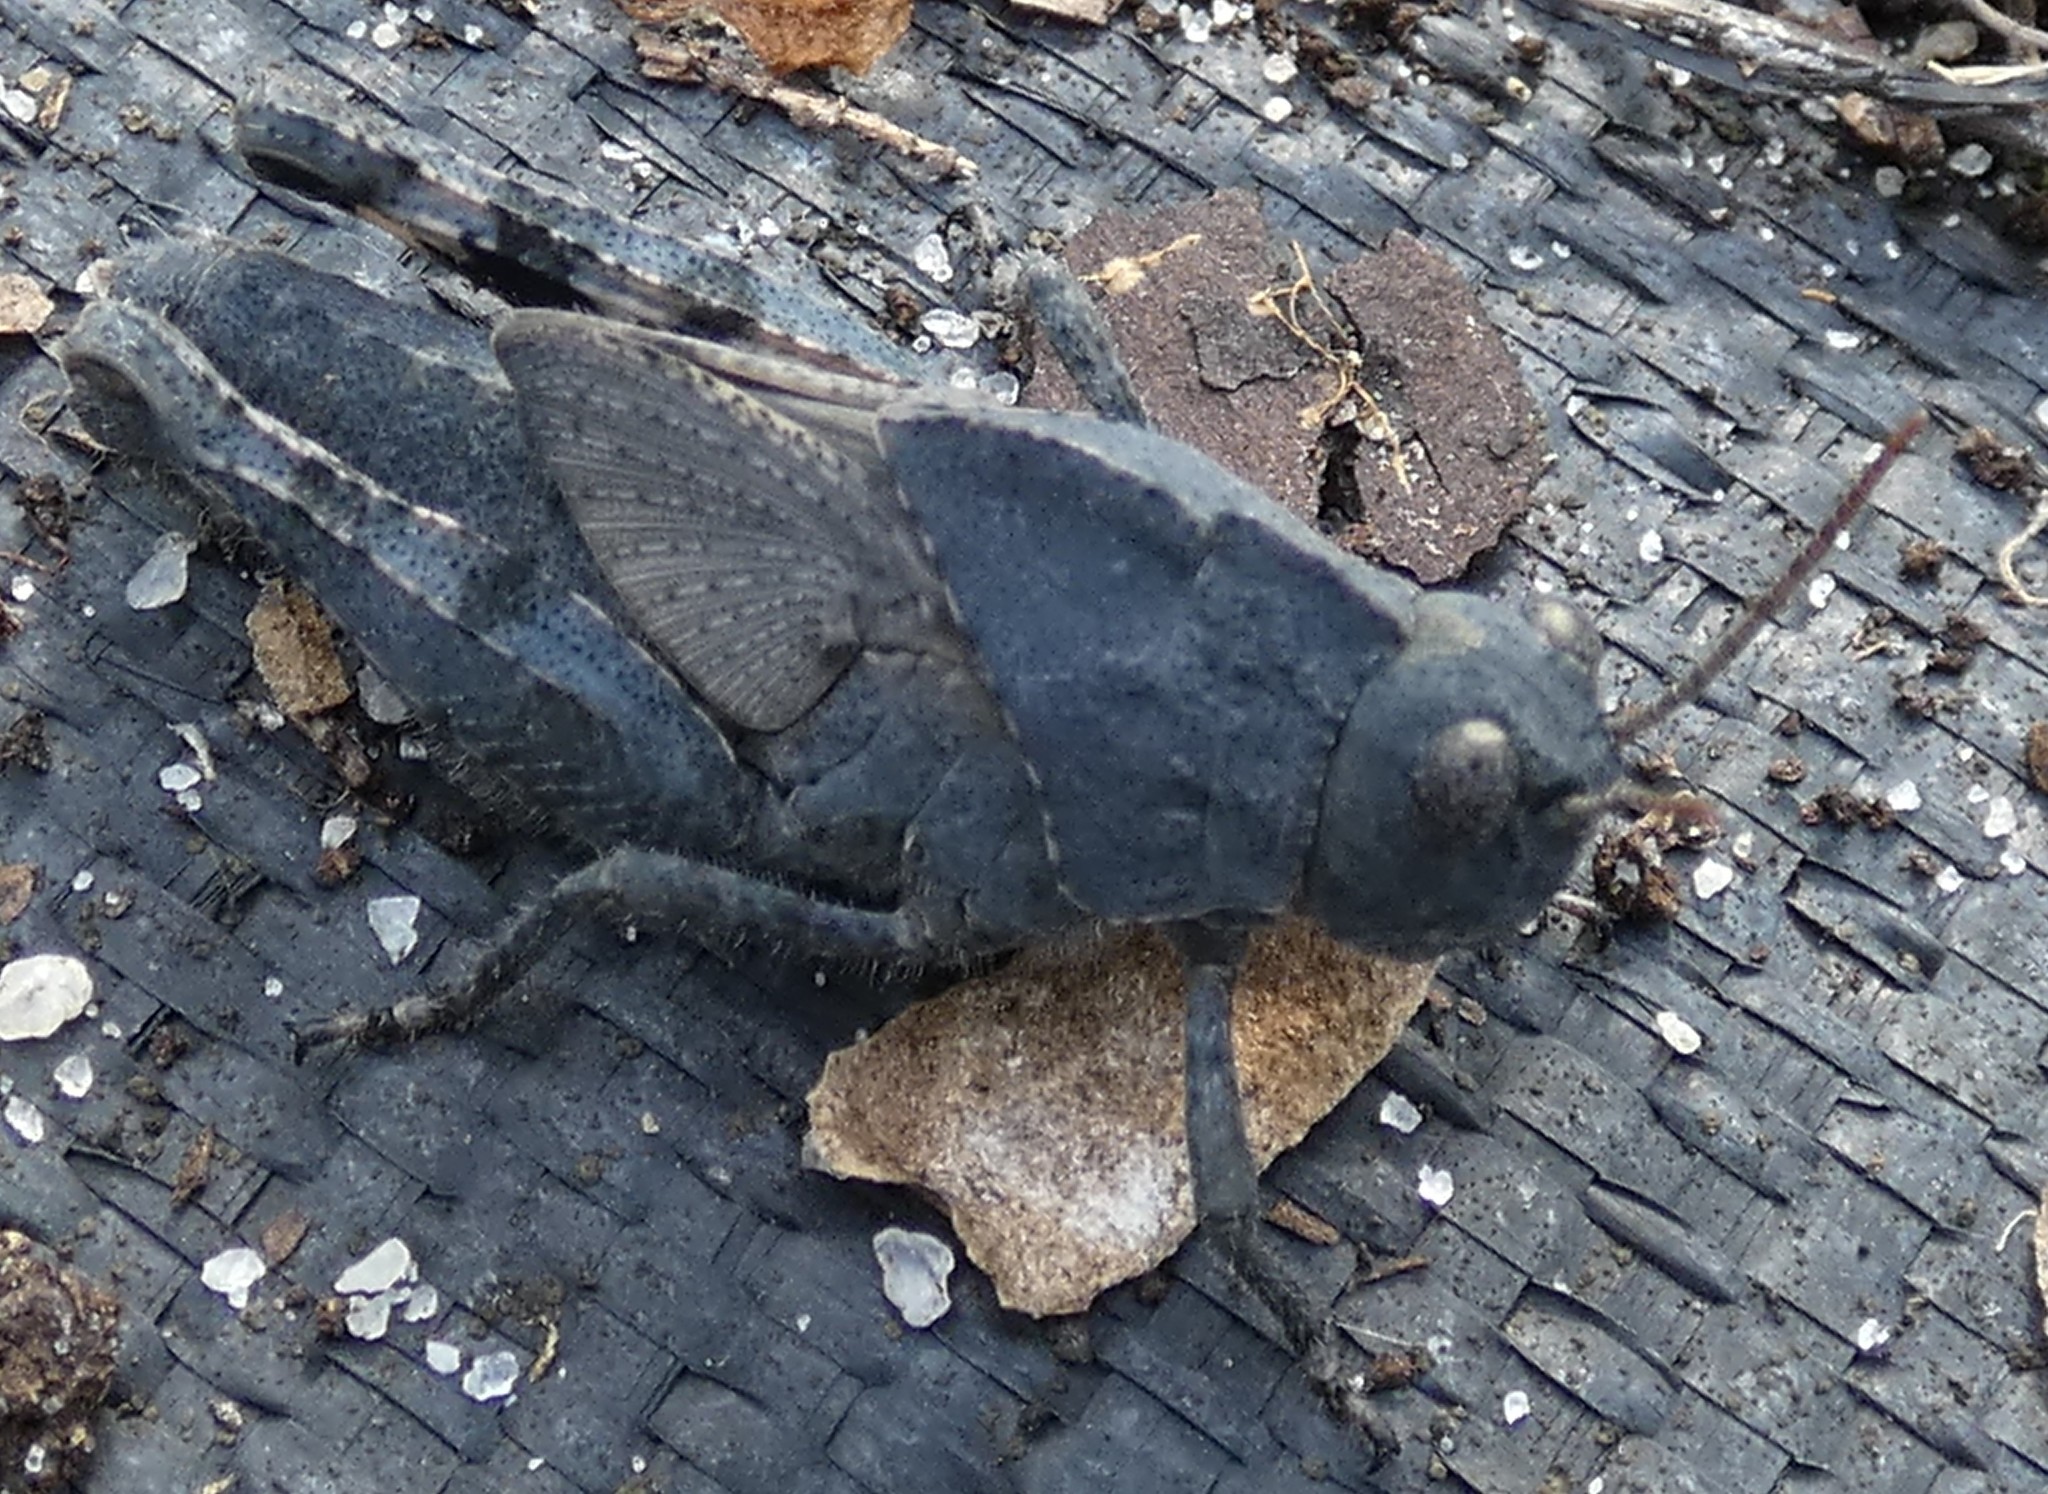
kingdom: Animalia
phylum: Arthropoda
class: Insecta
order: Orthoptera
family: Acrididae
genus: Dissosteira
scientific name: Dissosteira carolina
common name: Carolina grasshopper
